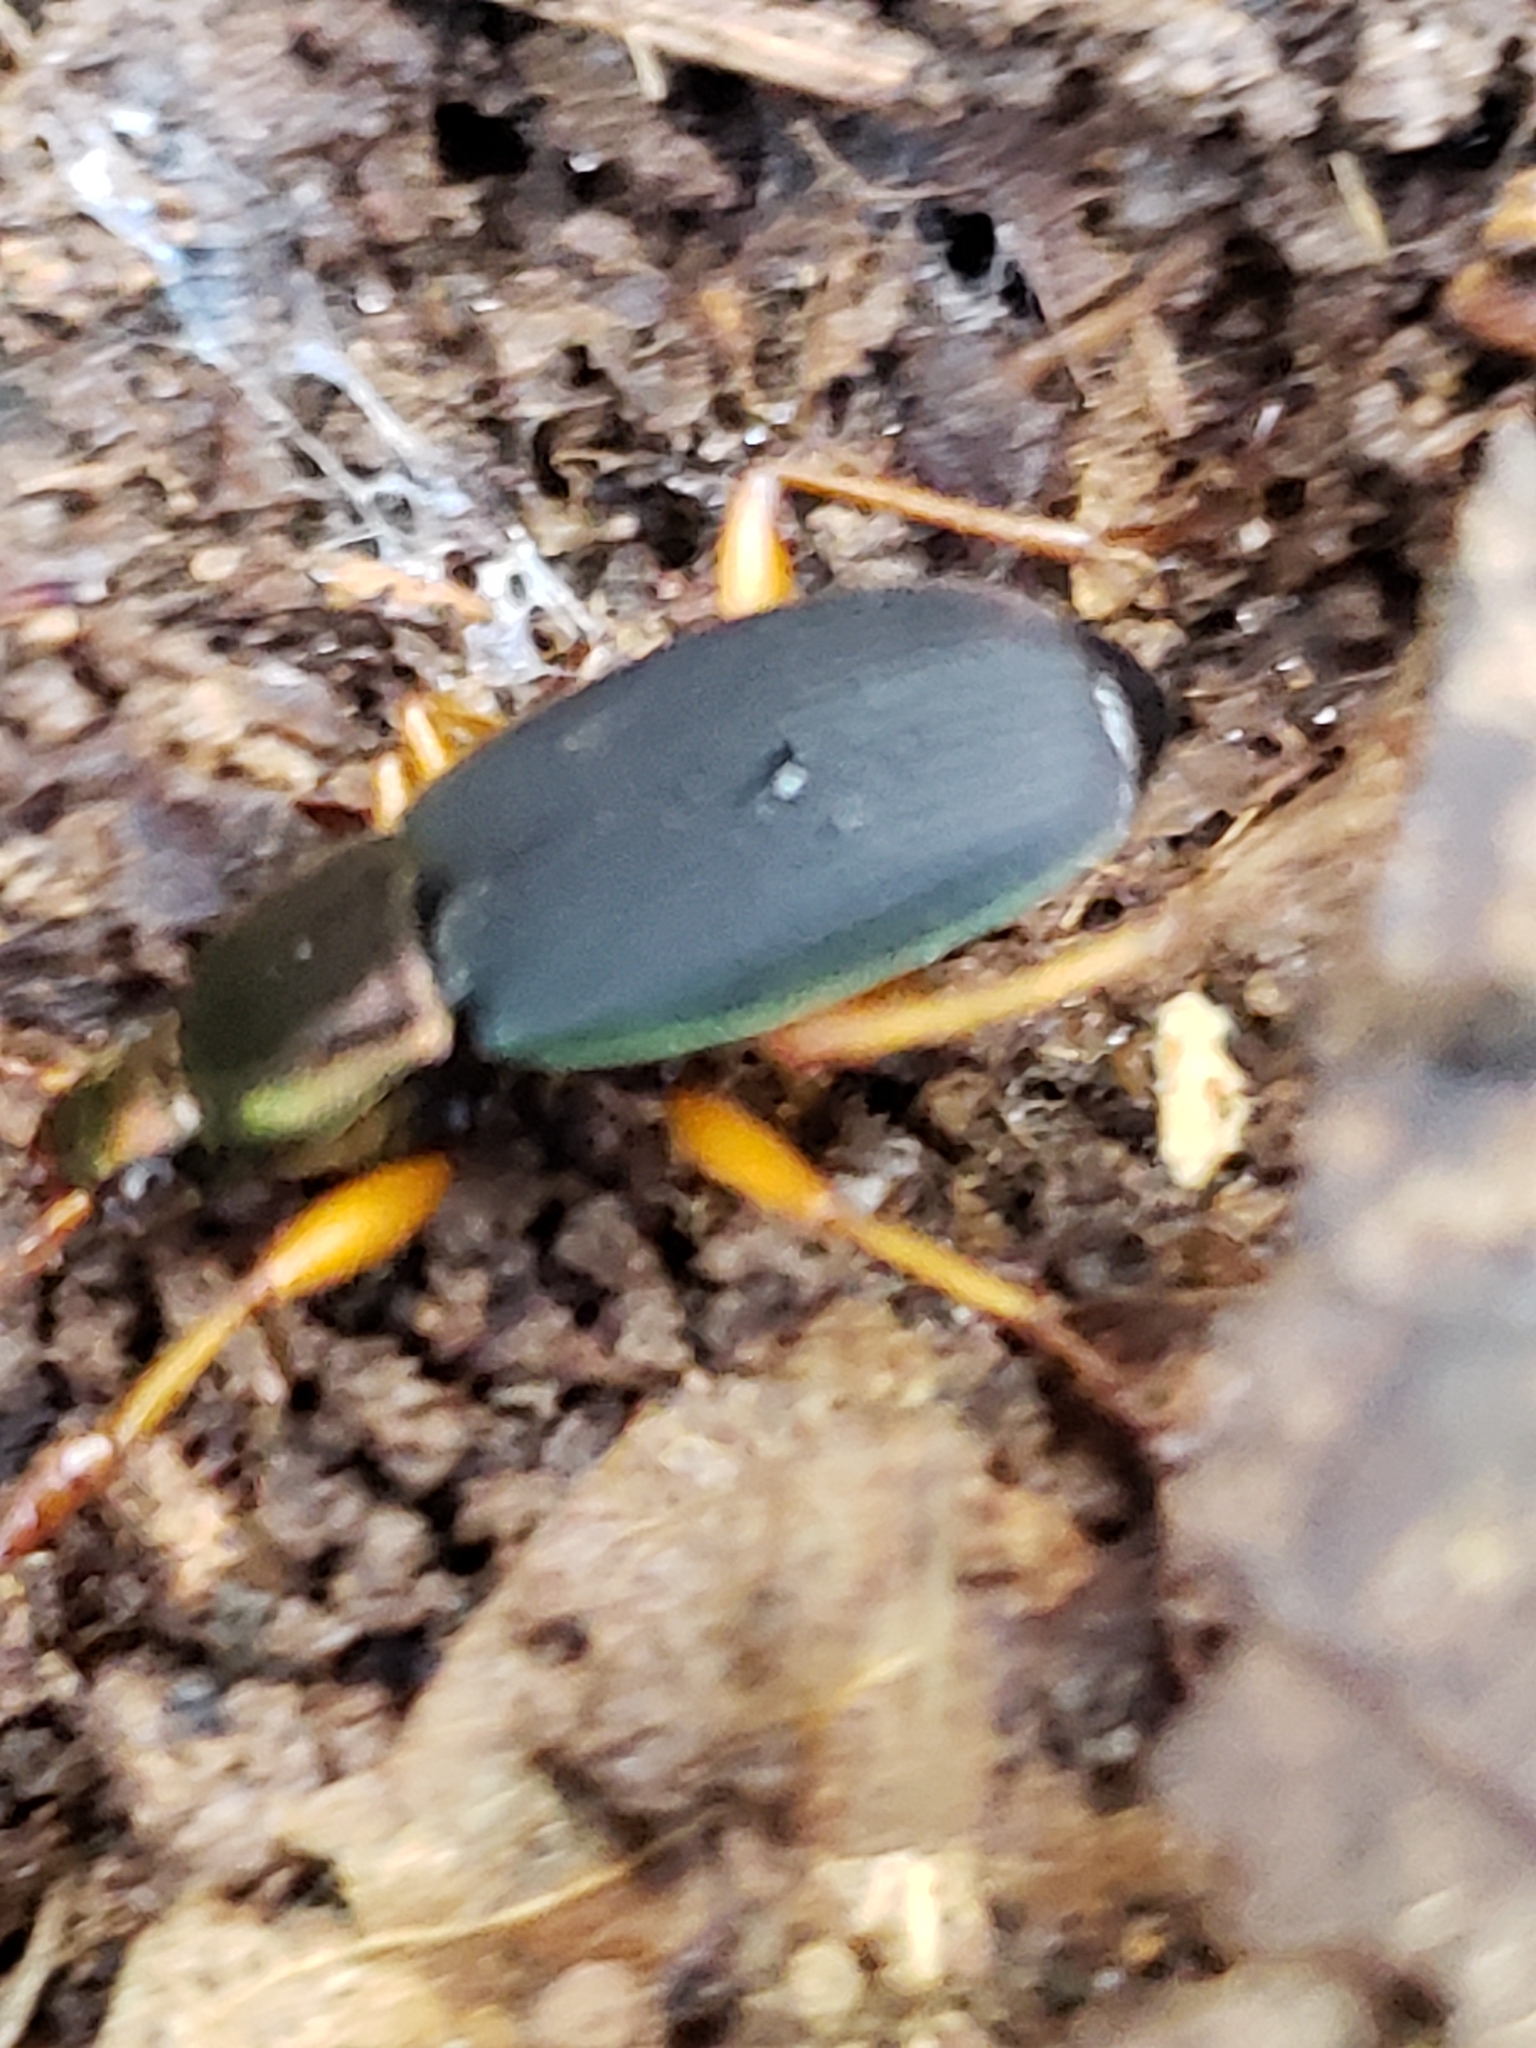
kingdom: Animalia
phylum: Arthropoda
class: Insecta
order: Coleoptera
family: Carabidae
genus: Chlaenius
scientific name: Chlaenius aestivus
